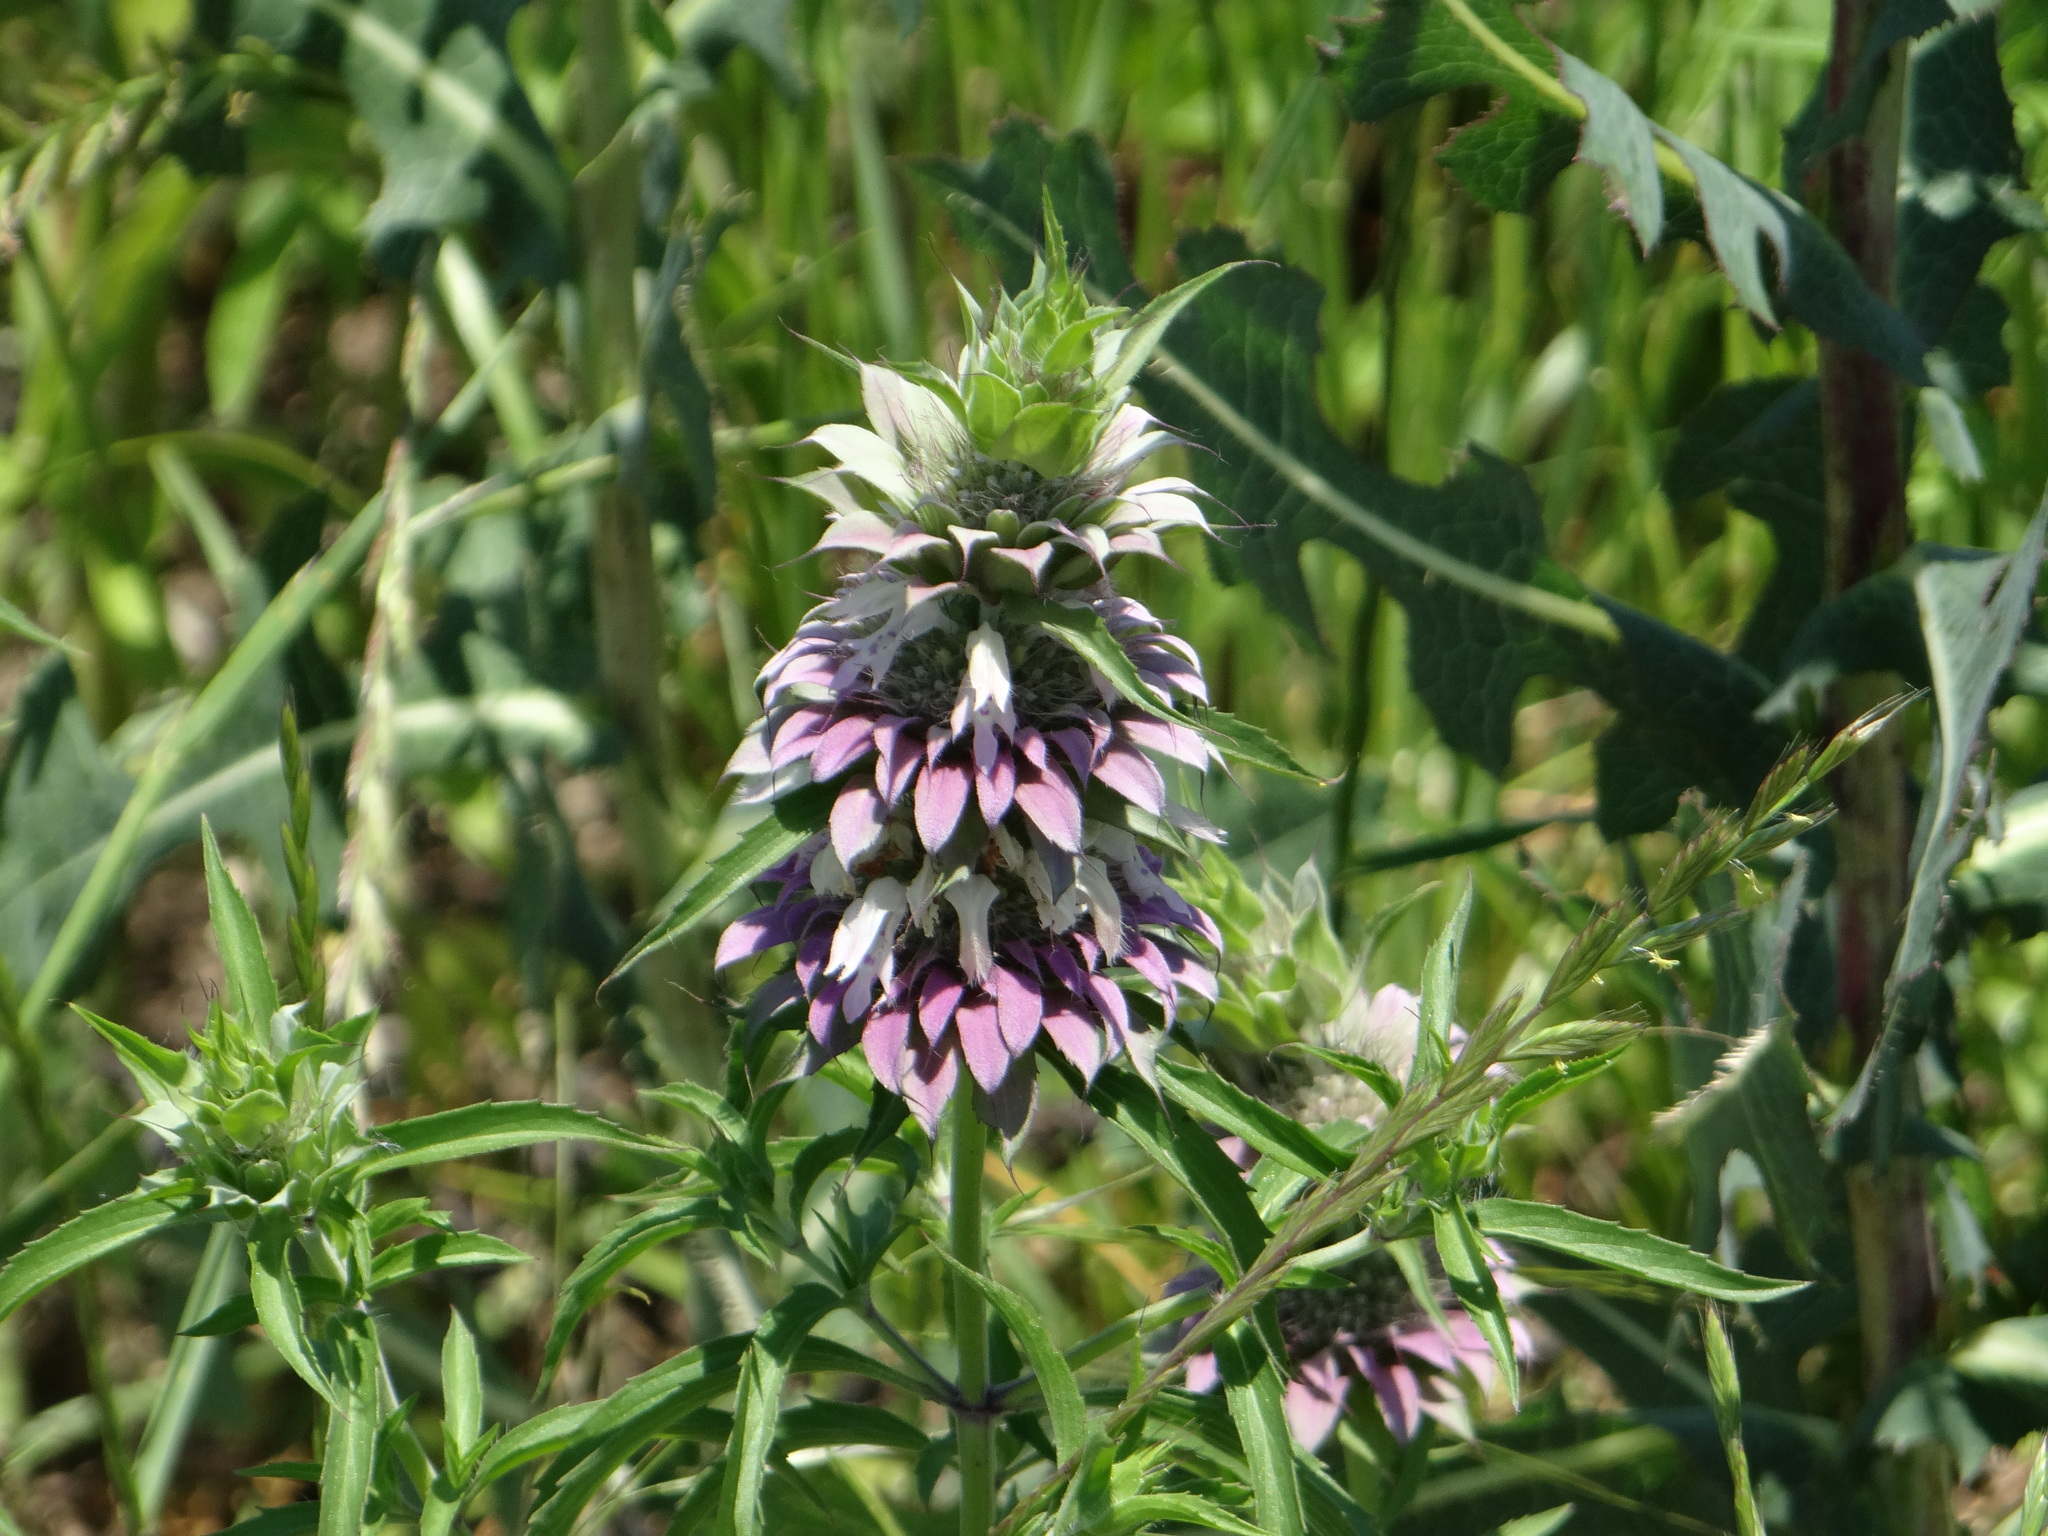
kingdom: Plantae
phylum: Tracheophyta
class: Magnoliopsida
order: Lamiales
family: Lamiaceae
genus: Monarda
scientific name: Monarda citriodora
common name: Lemon beebalm
